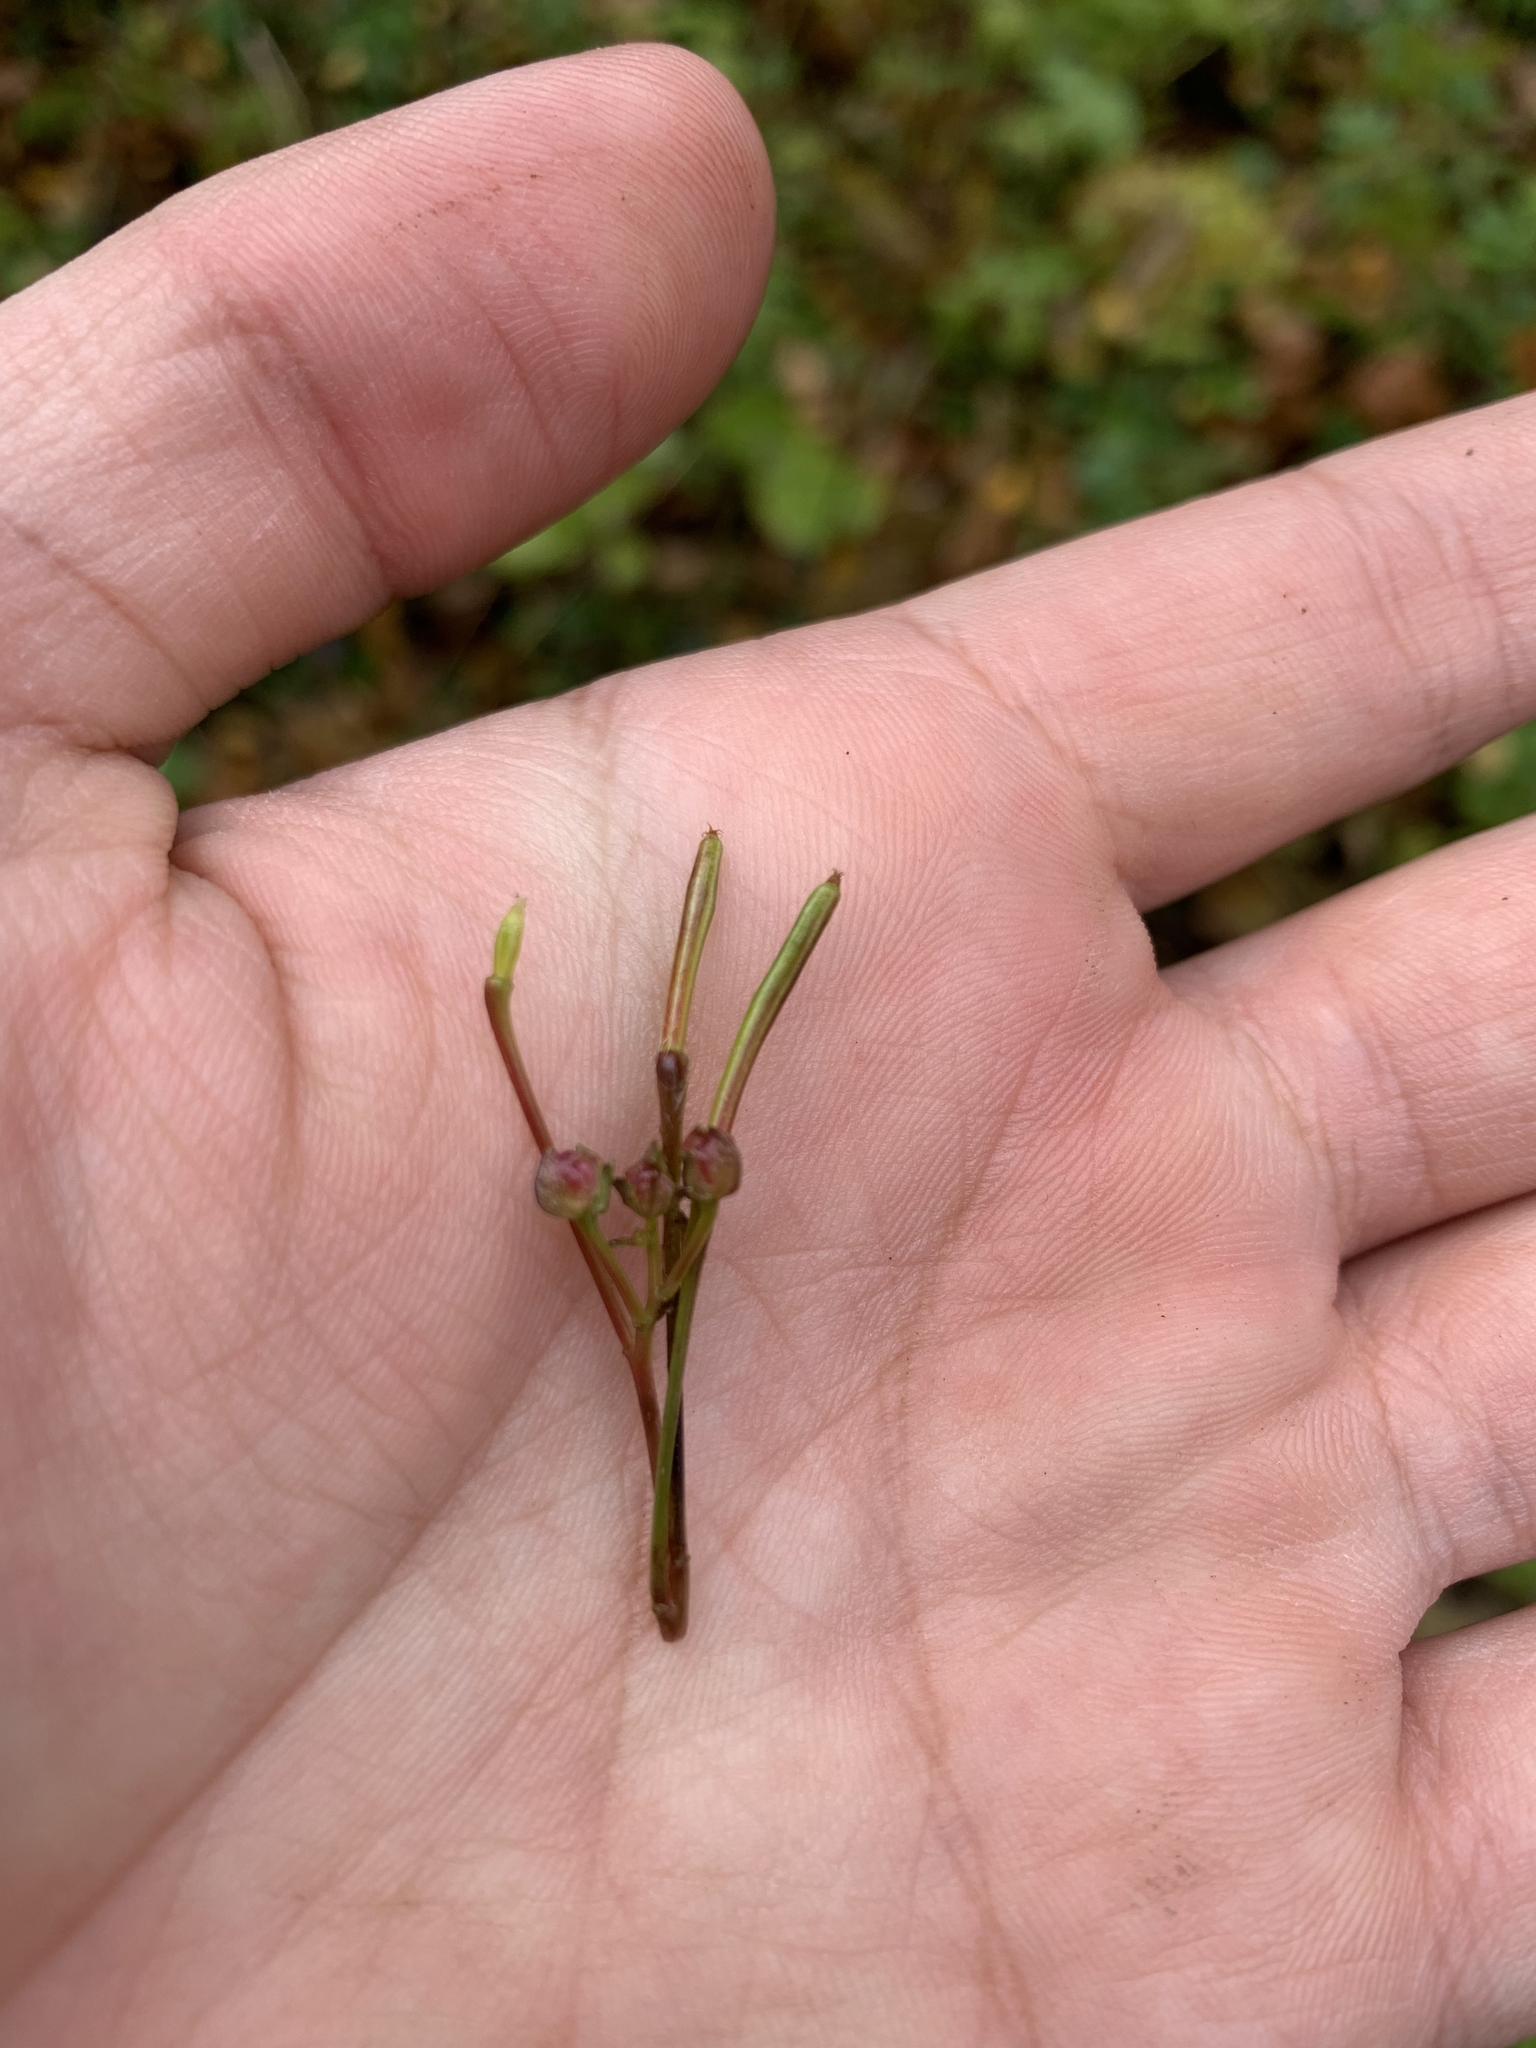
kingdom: Plantae
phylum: Tracheophyta
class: Magnoliopsida
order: Ericales
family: Balsaminaceae
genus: Impatiens
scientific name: Impatiens parviflora
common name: Small balsam
